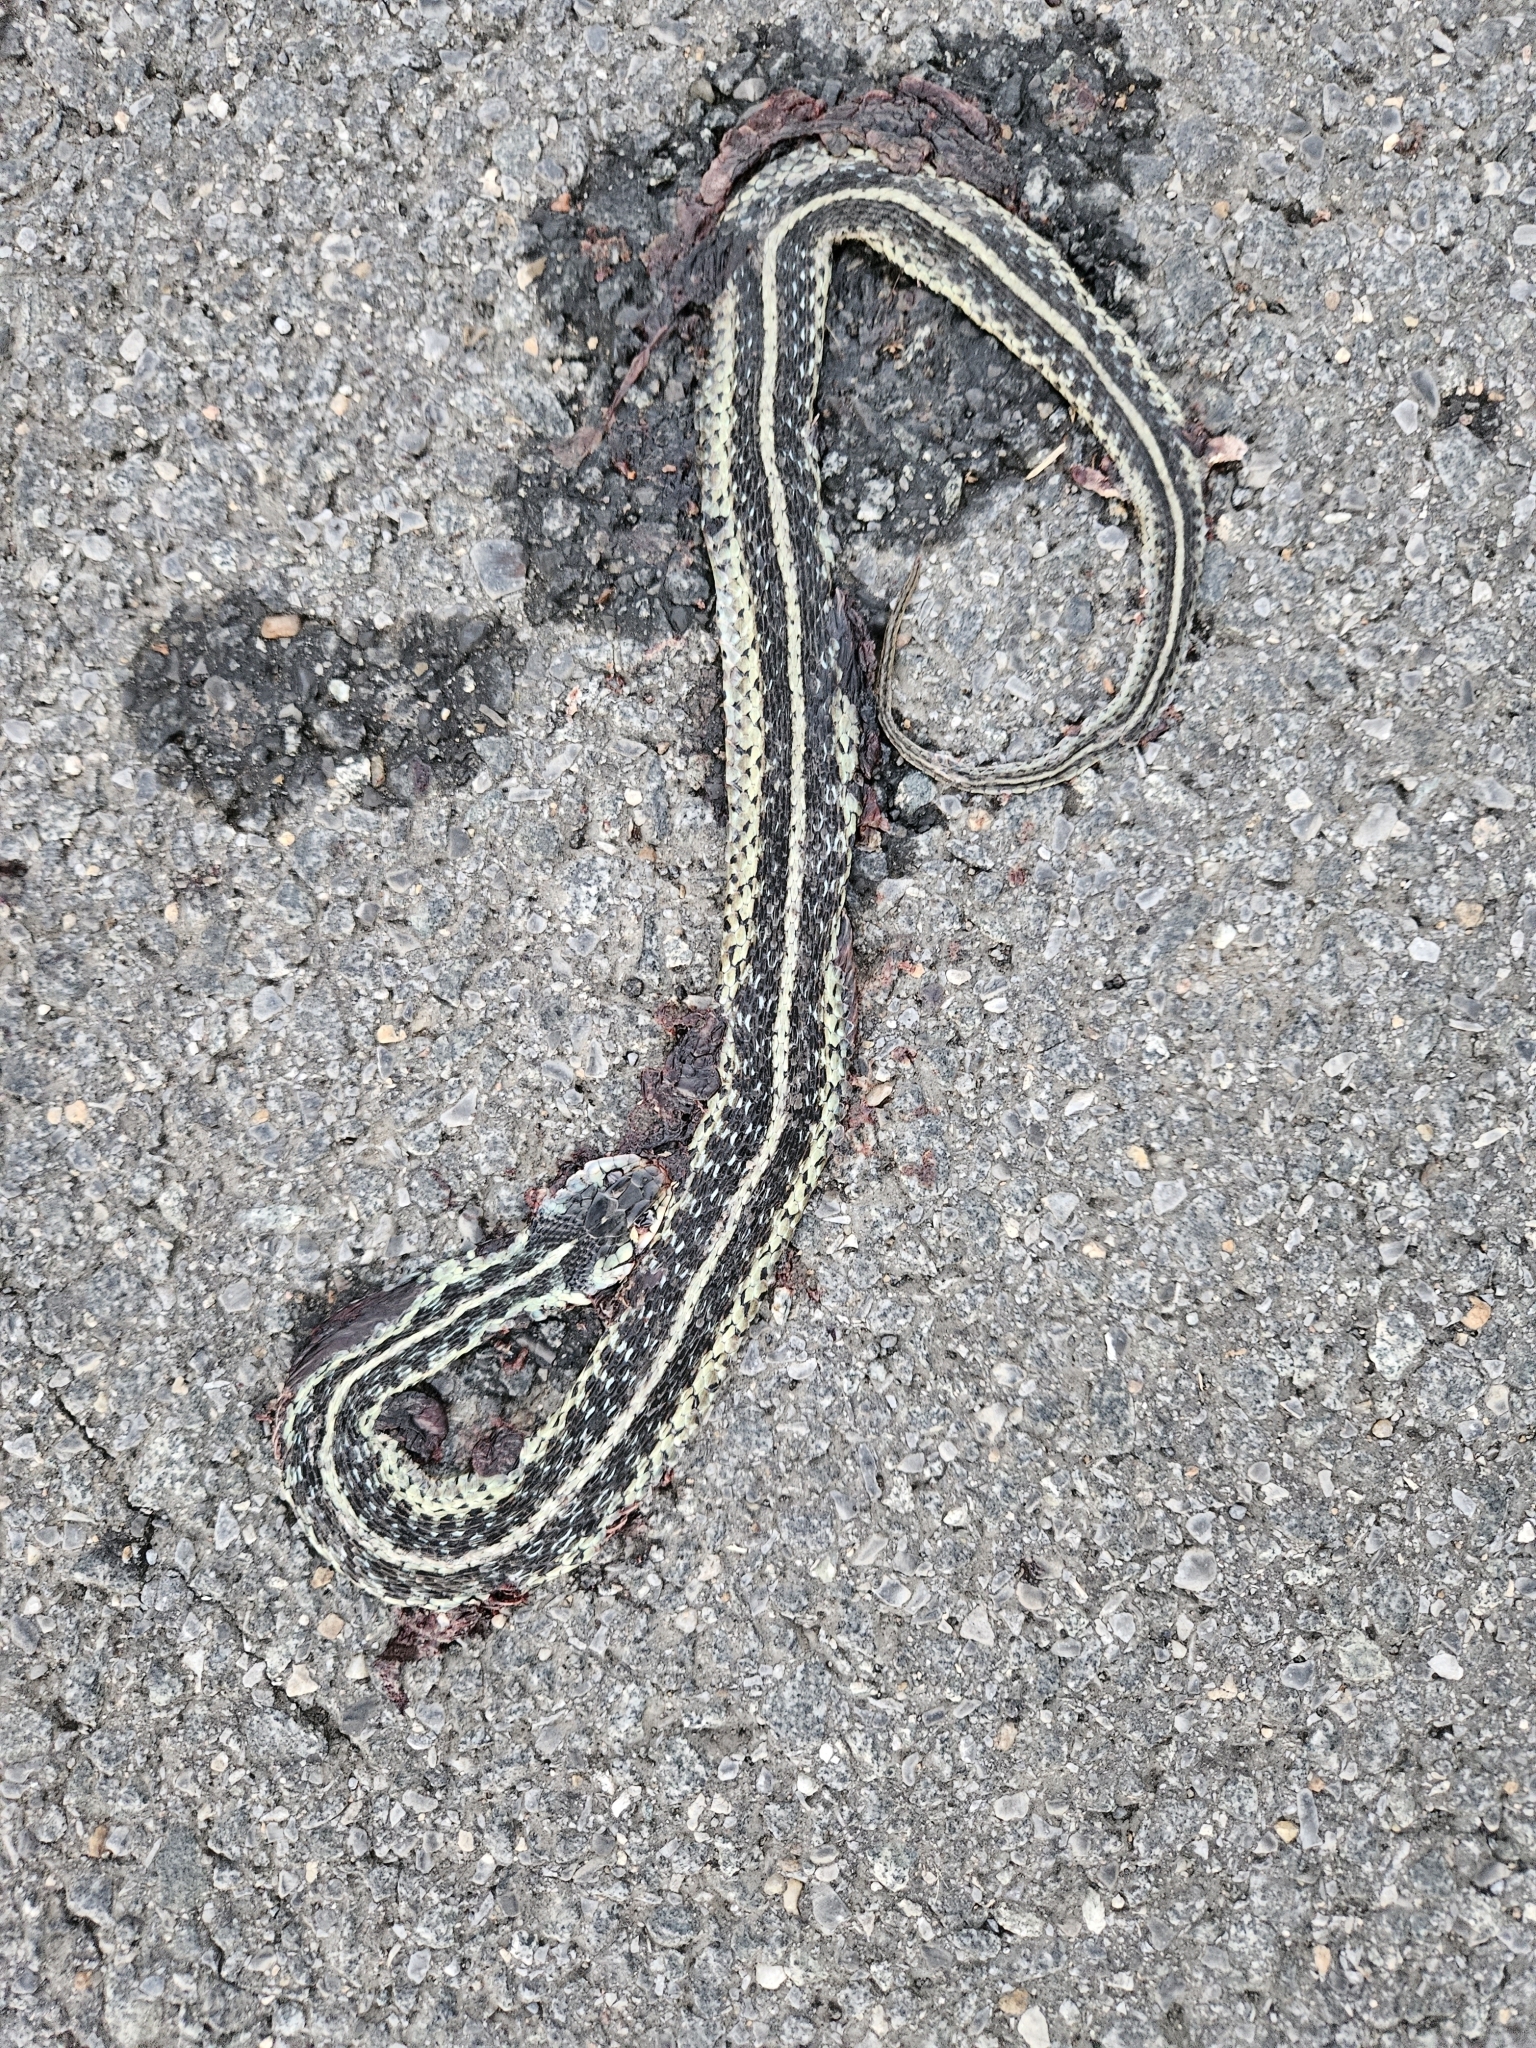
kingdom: Animalia
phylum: Chordata
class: Squamata
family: Colubridae
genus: Thamnophis
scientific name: Thamnophis sirtalis
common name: Common garter snake
